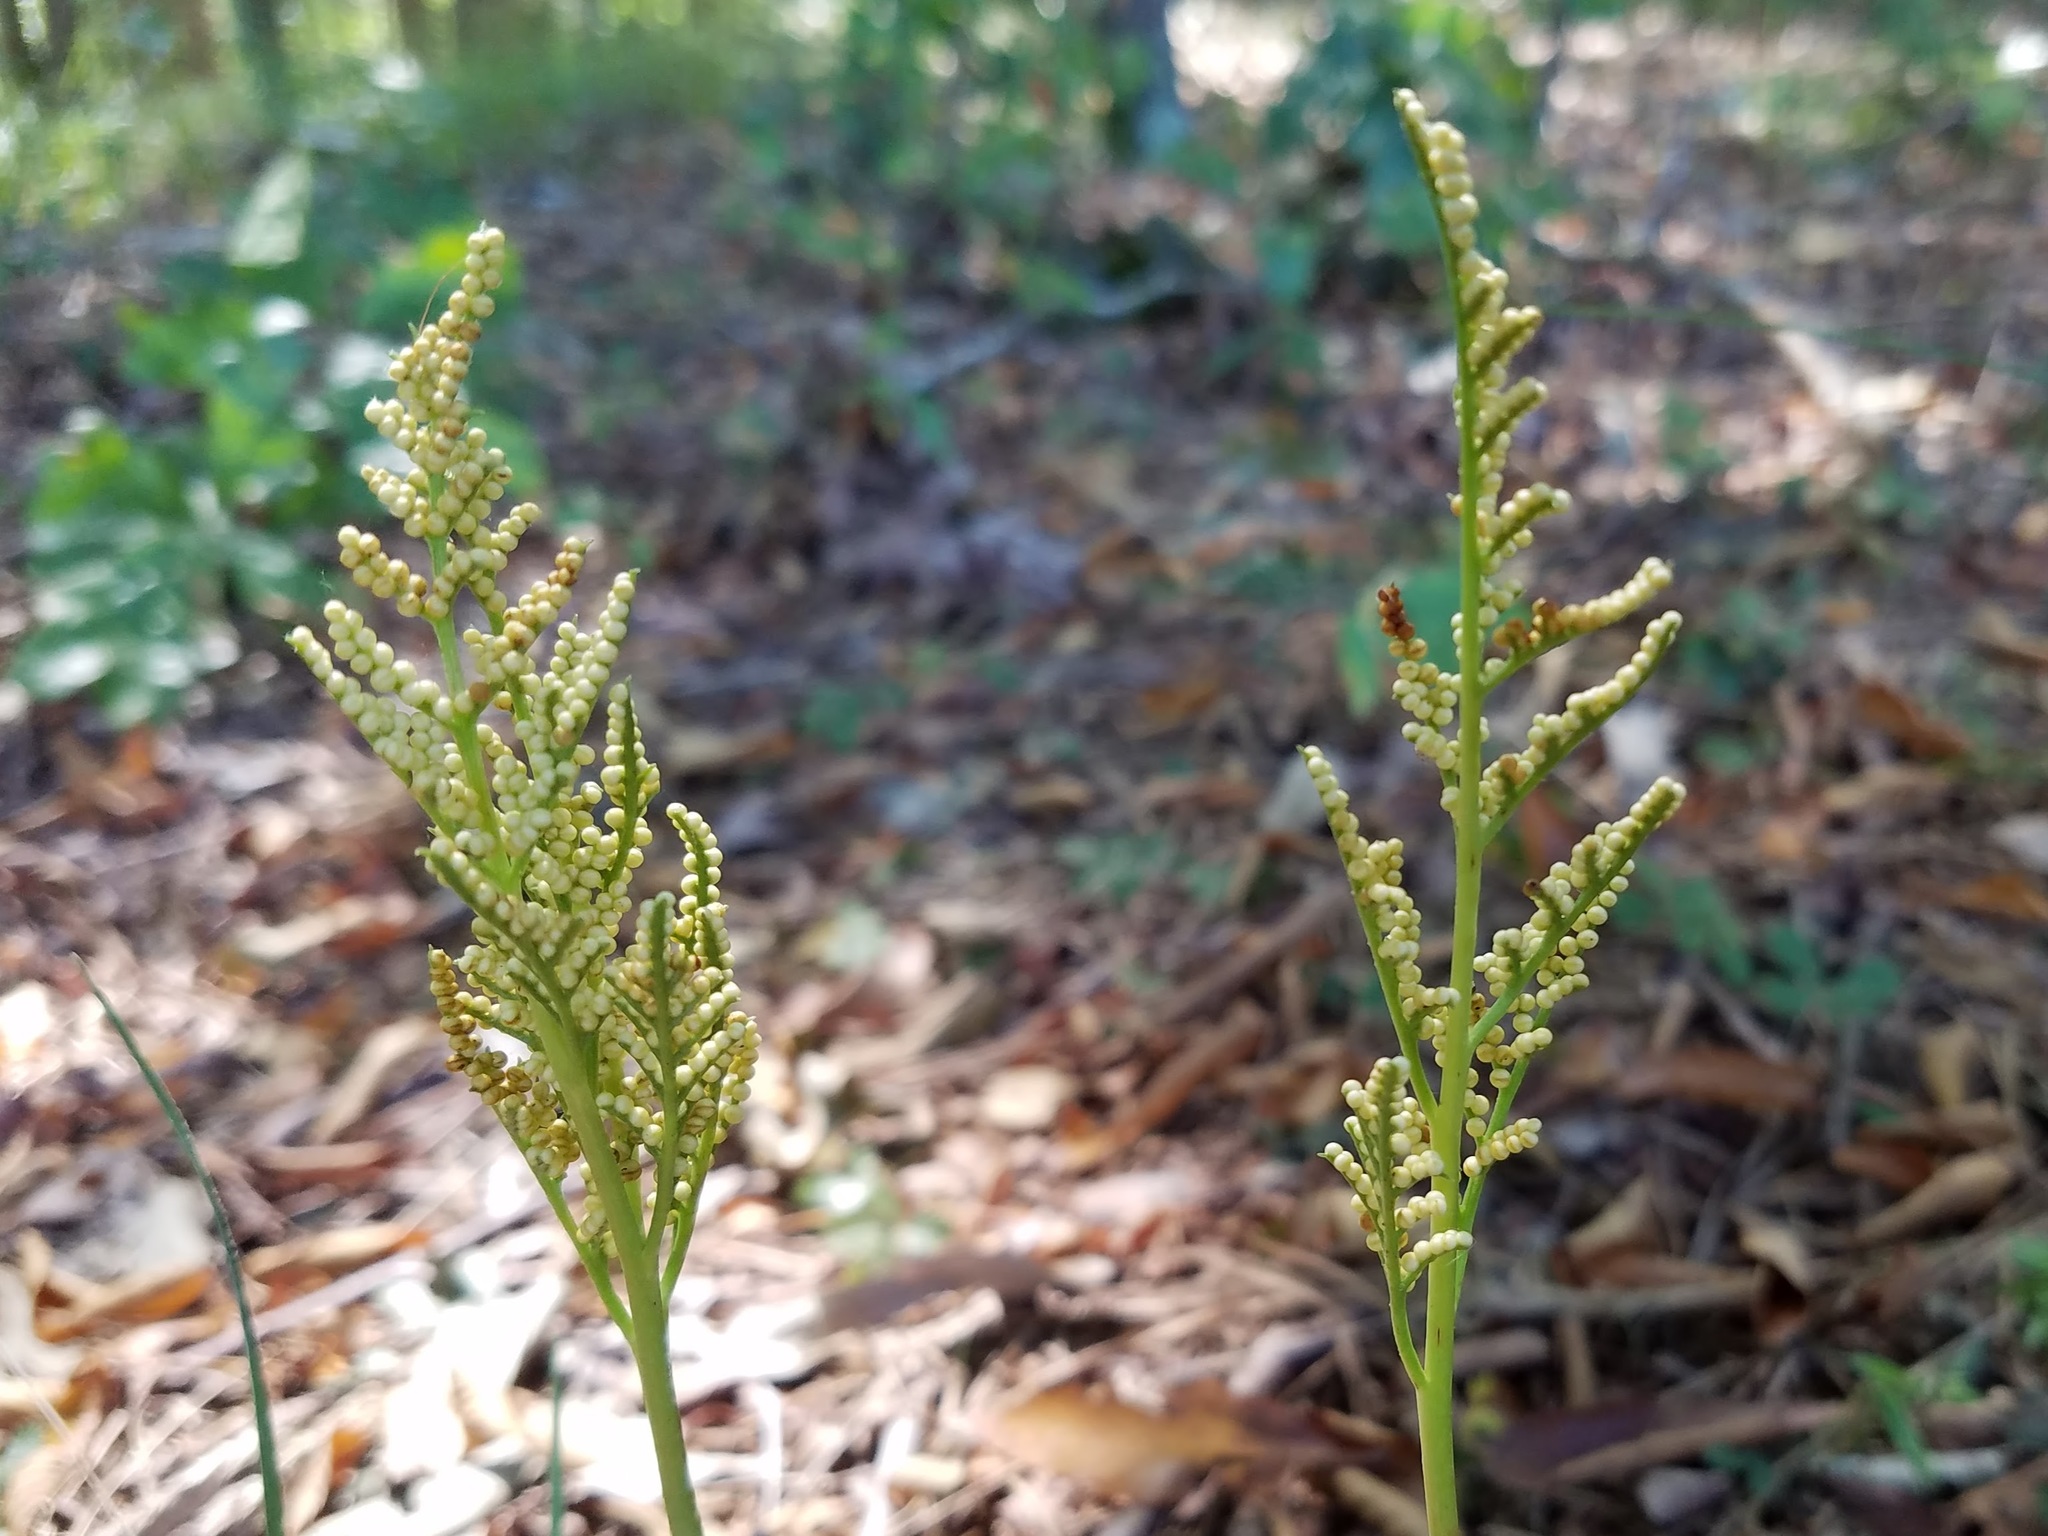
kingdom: Plantae
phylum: Tracheophyta
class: Polypodiopsida
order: Ophioglossales
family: Ophioglossaceae
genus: Sceptridium
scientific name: Sceptridium biternatum
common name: Sparse-lobed grapefern
